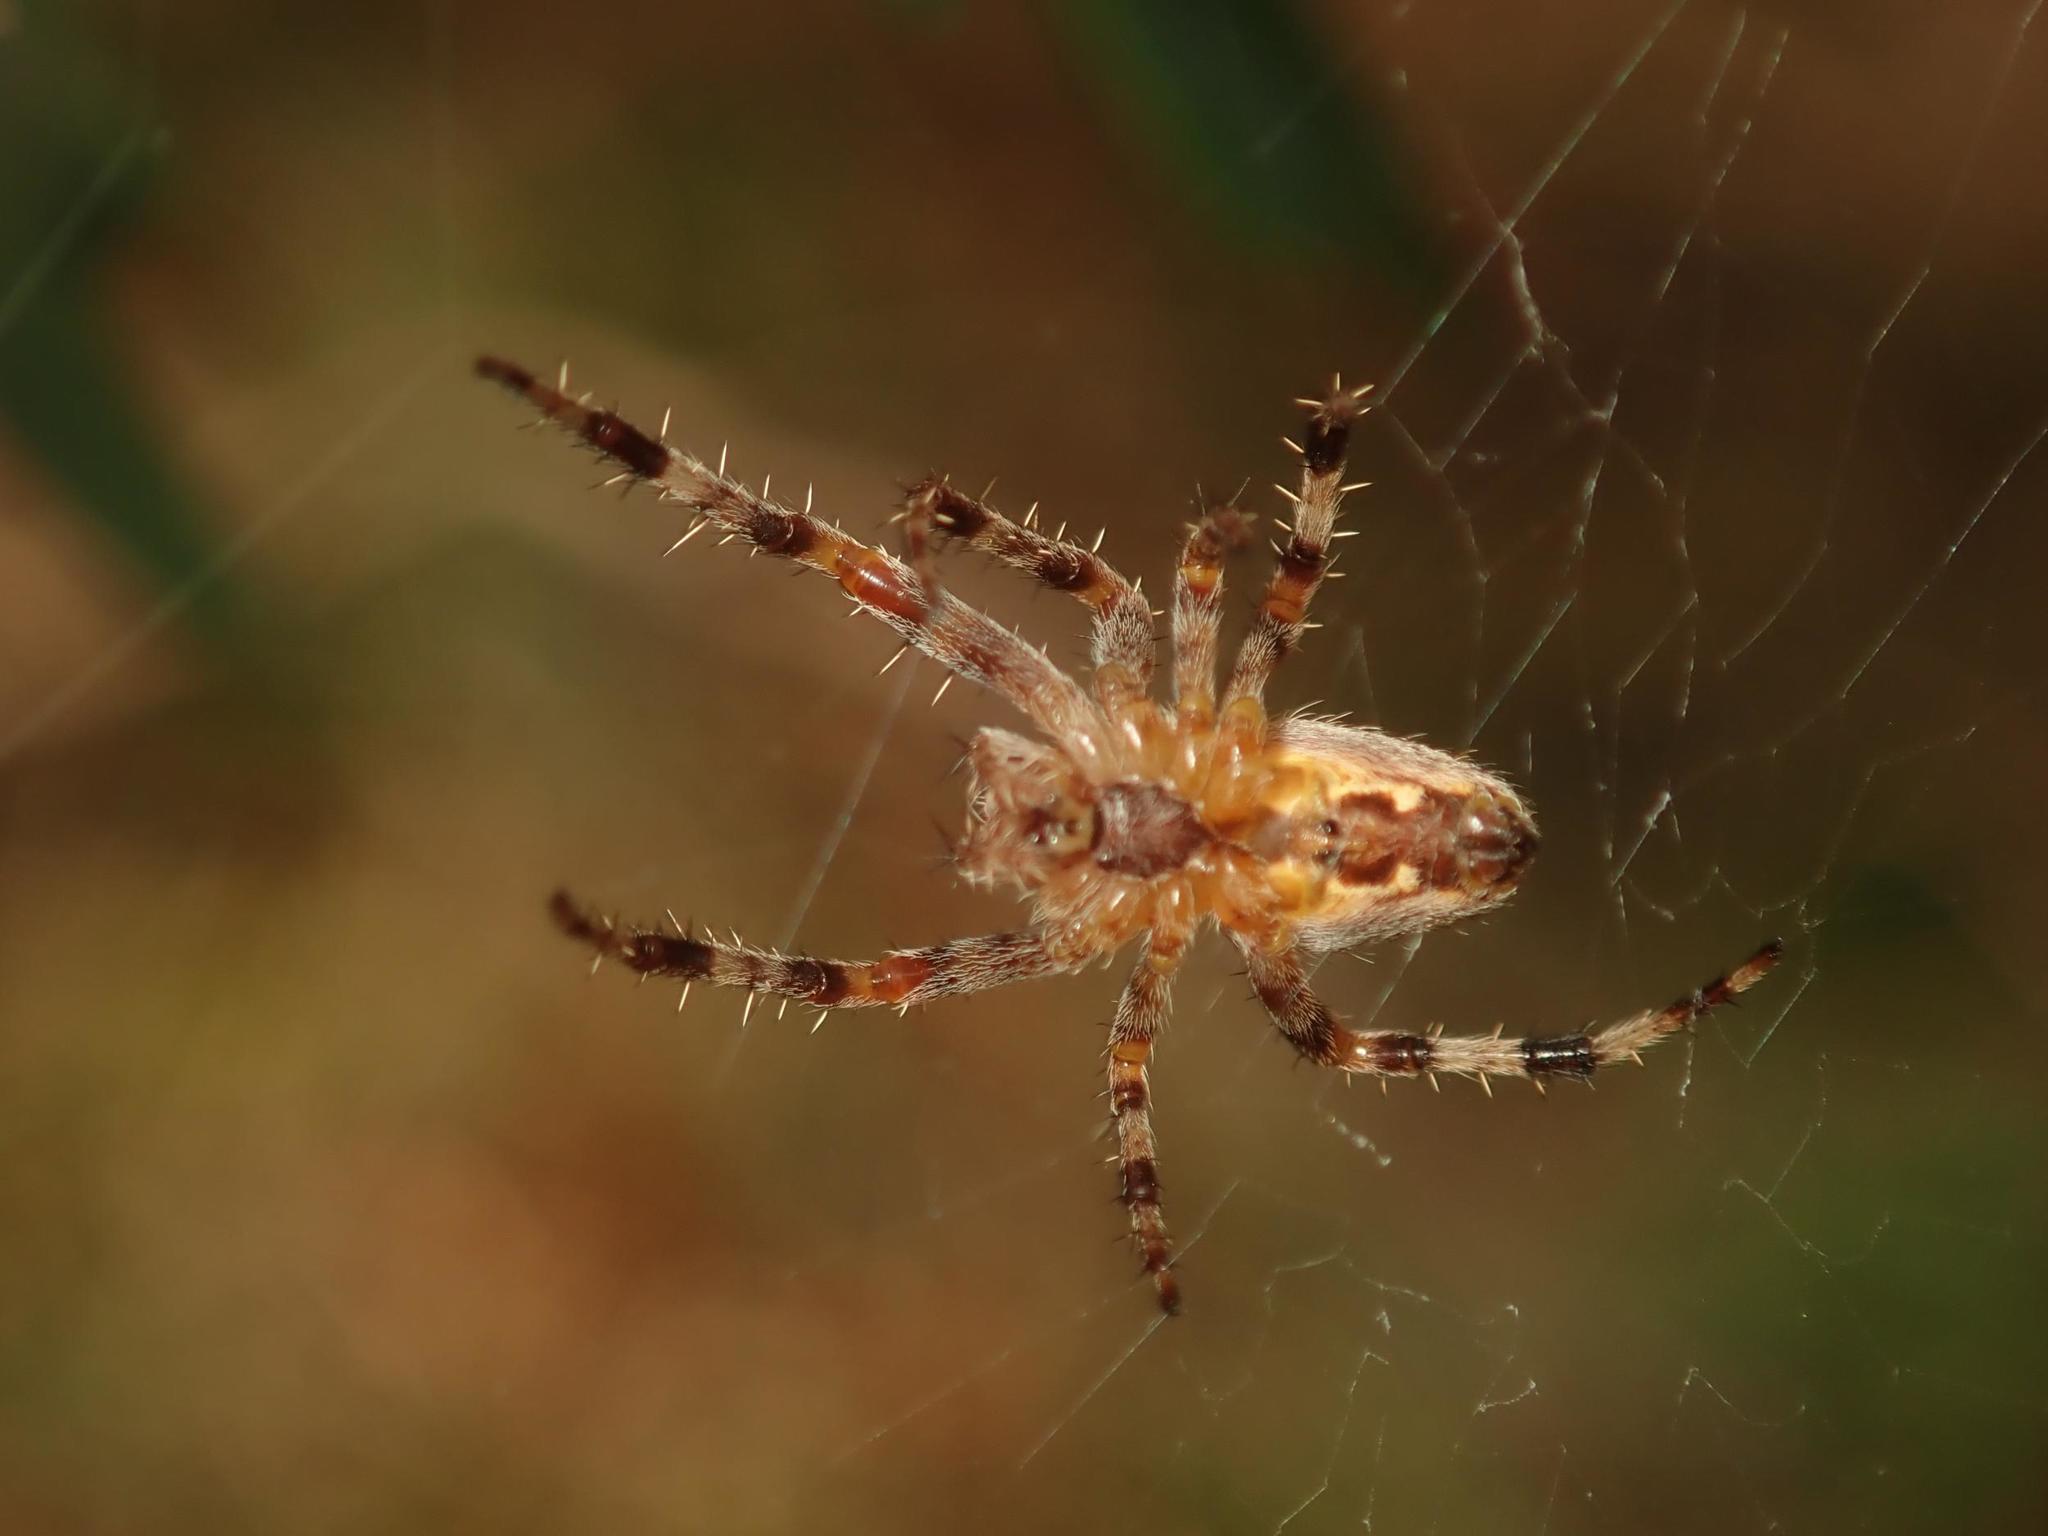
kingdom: Animalia
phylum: Arthropoda
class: Arachnida
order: Araneae
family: Araneidae
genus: Araneus
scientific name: Araneus diadematus
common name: Cross orbweaver
